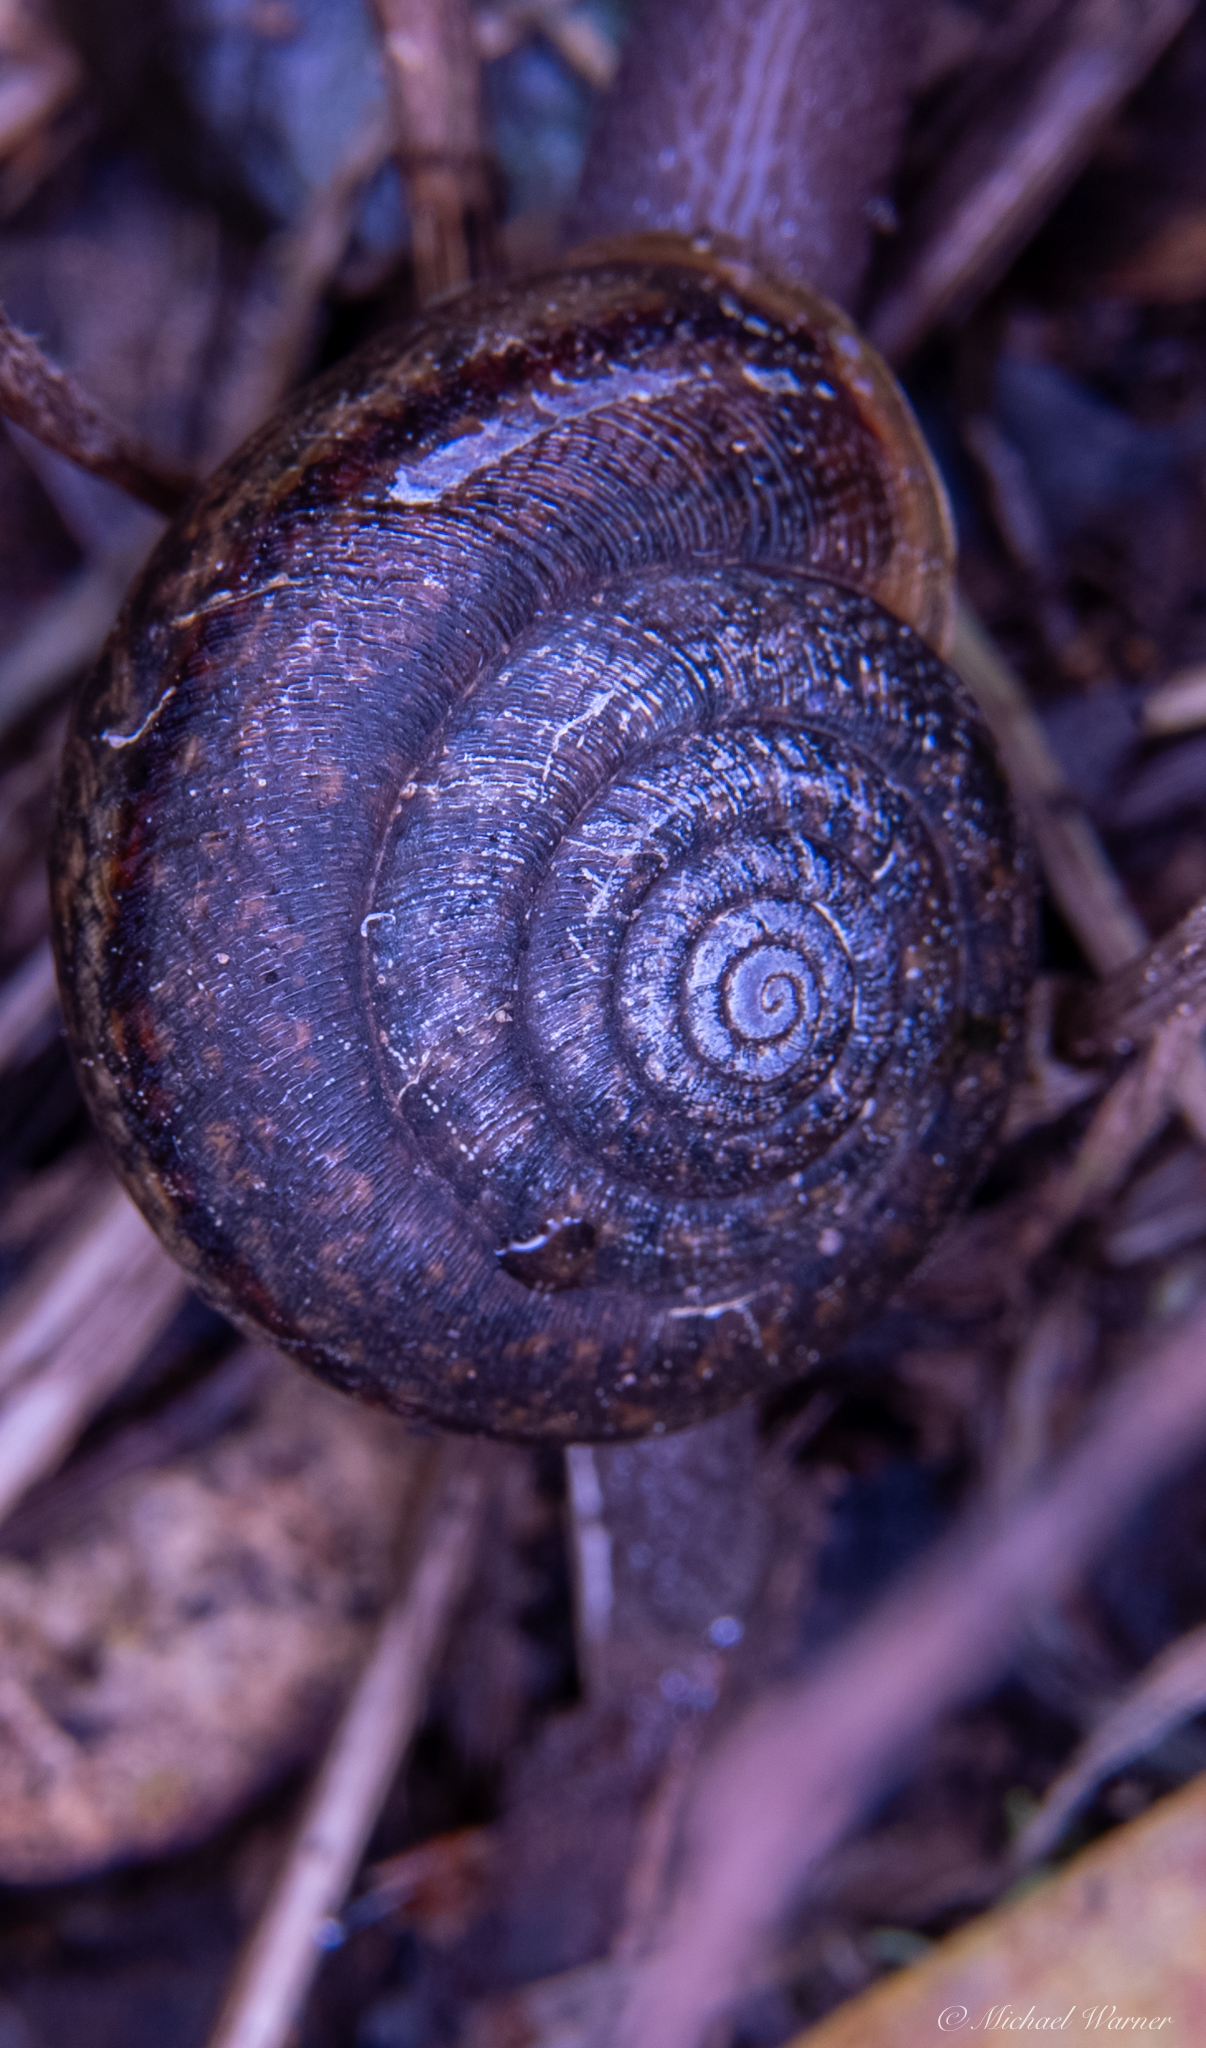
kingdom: Animalia
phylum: Mollusca
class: Gastropoda
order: Stylommatophora
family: Xanthonychidae
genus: Helminthoglypta
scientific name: Helminthoglypta diabloensis
